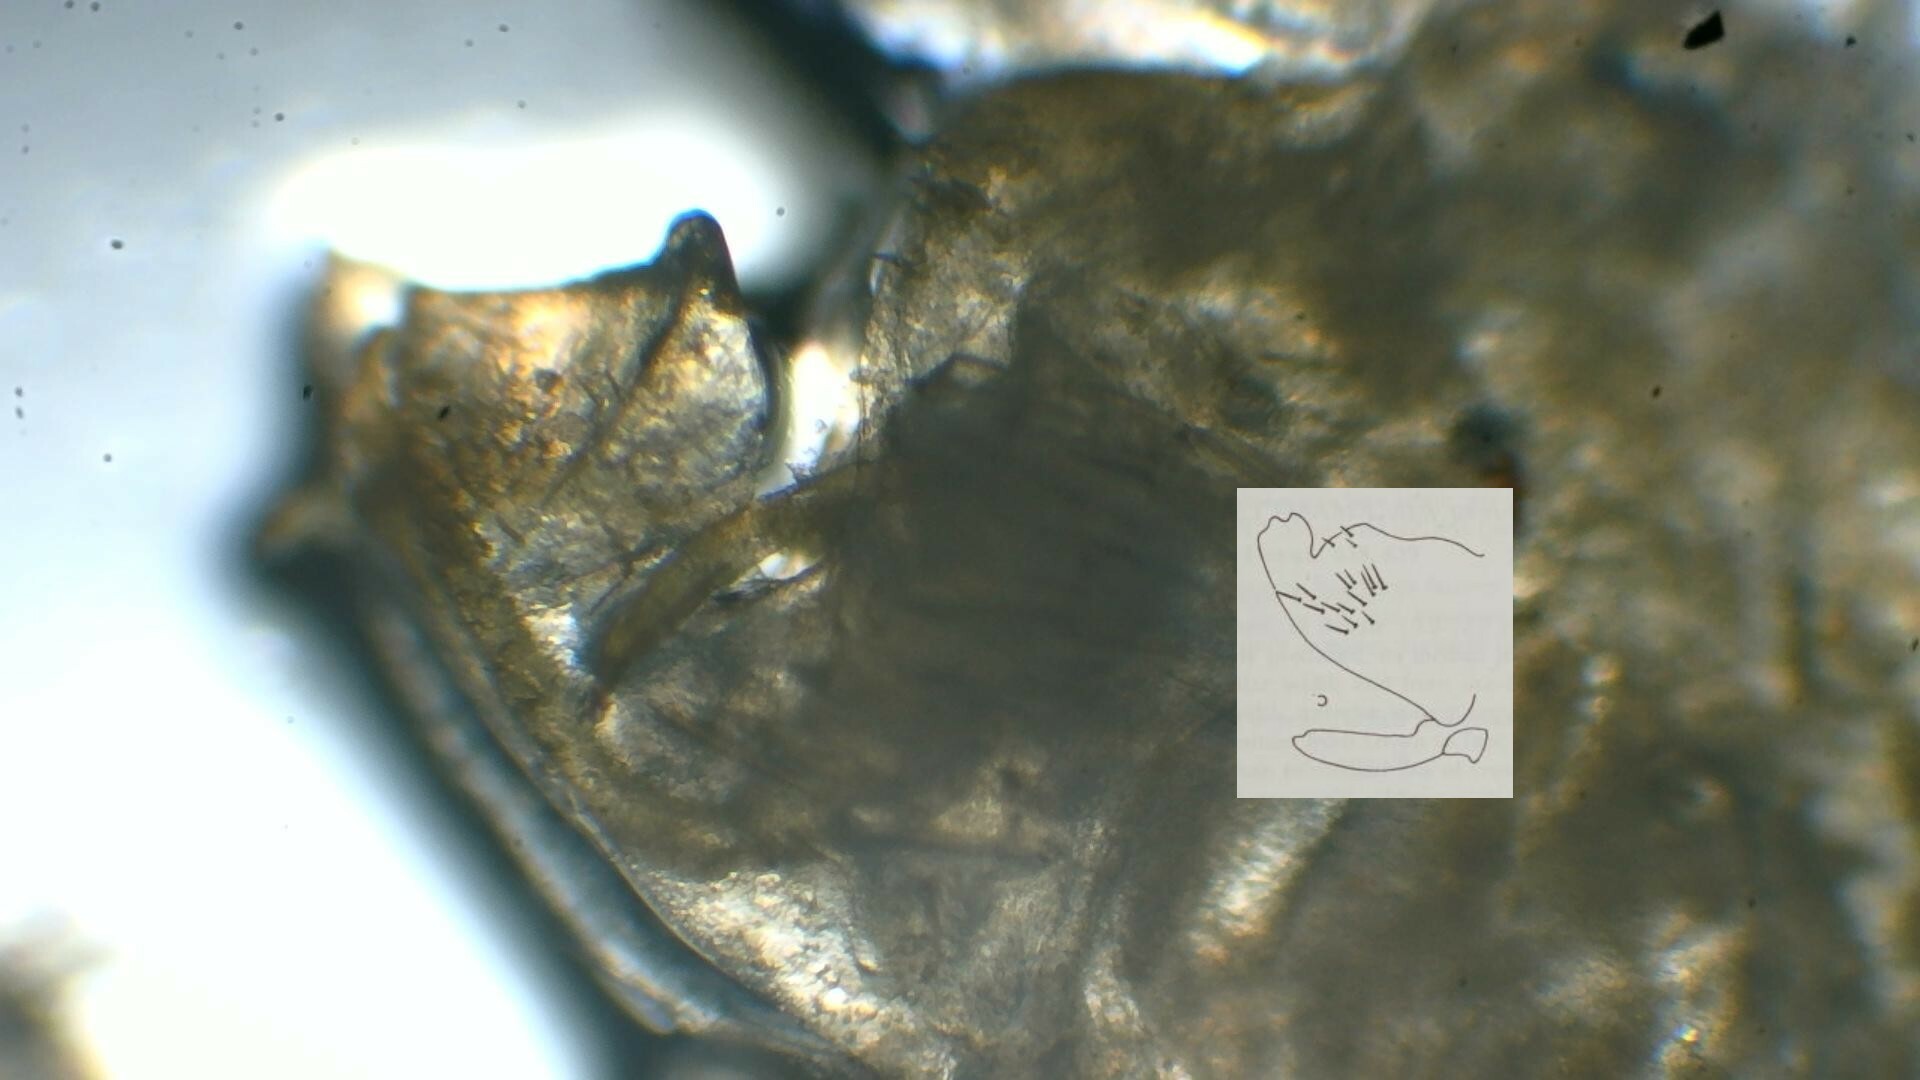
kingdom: Animalia
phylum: Arthropoda
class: Insecta
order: Hemiptera
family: Cicadellidae
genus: Tettisama
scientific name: Tettisama quinquemaculata
